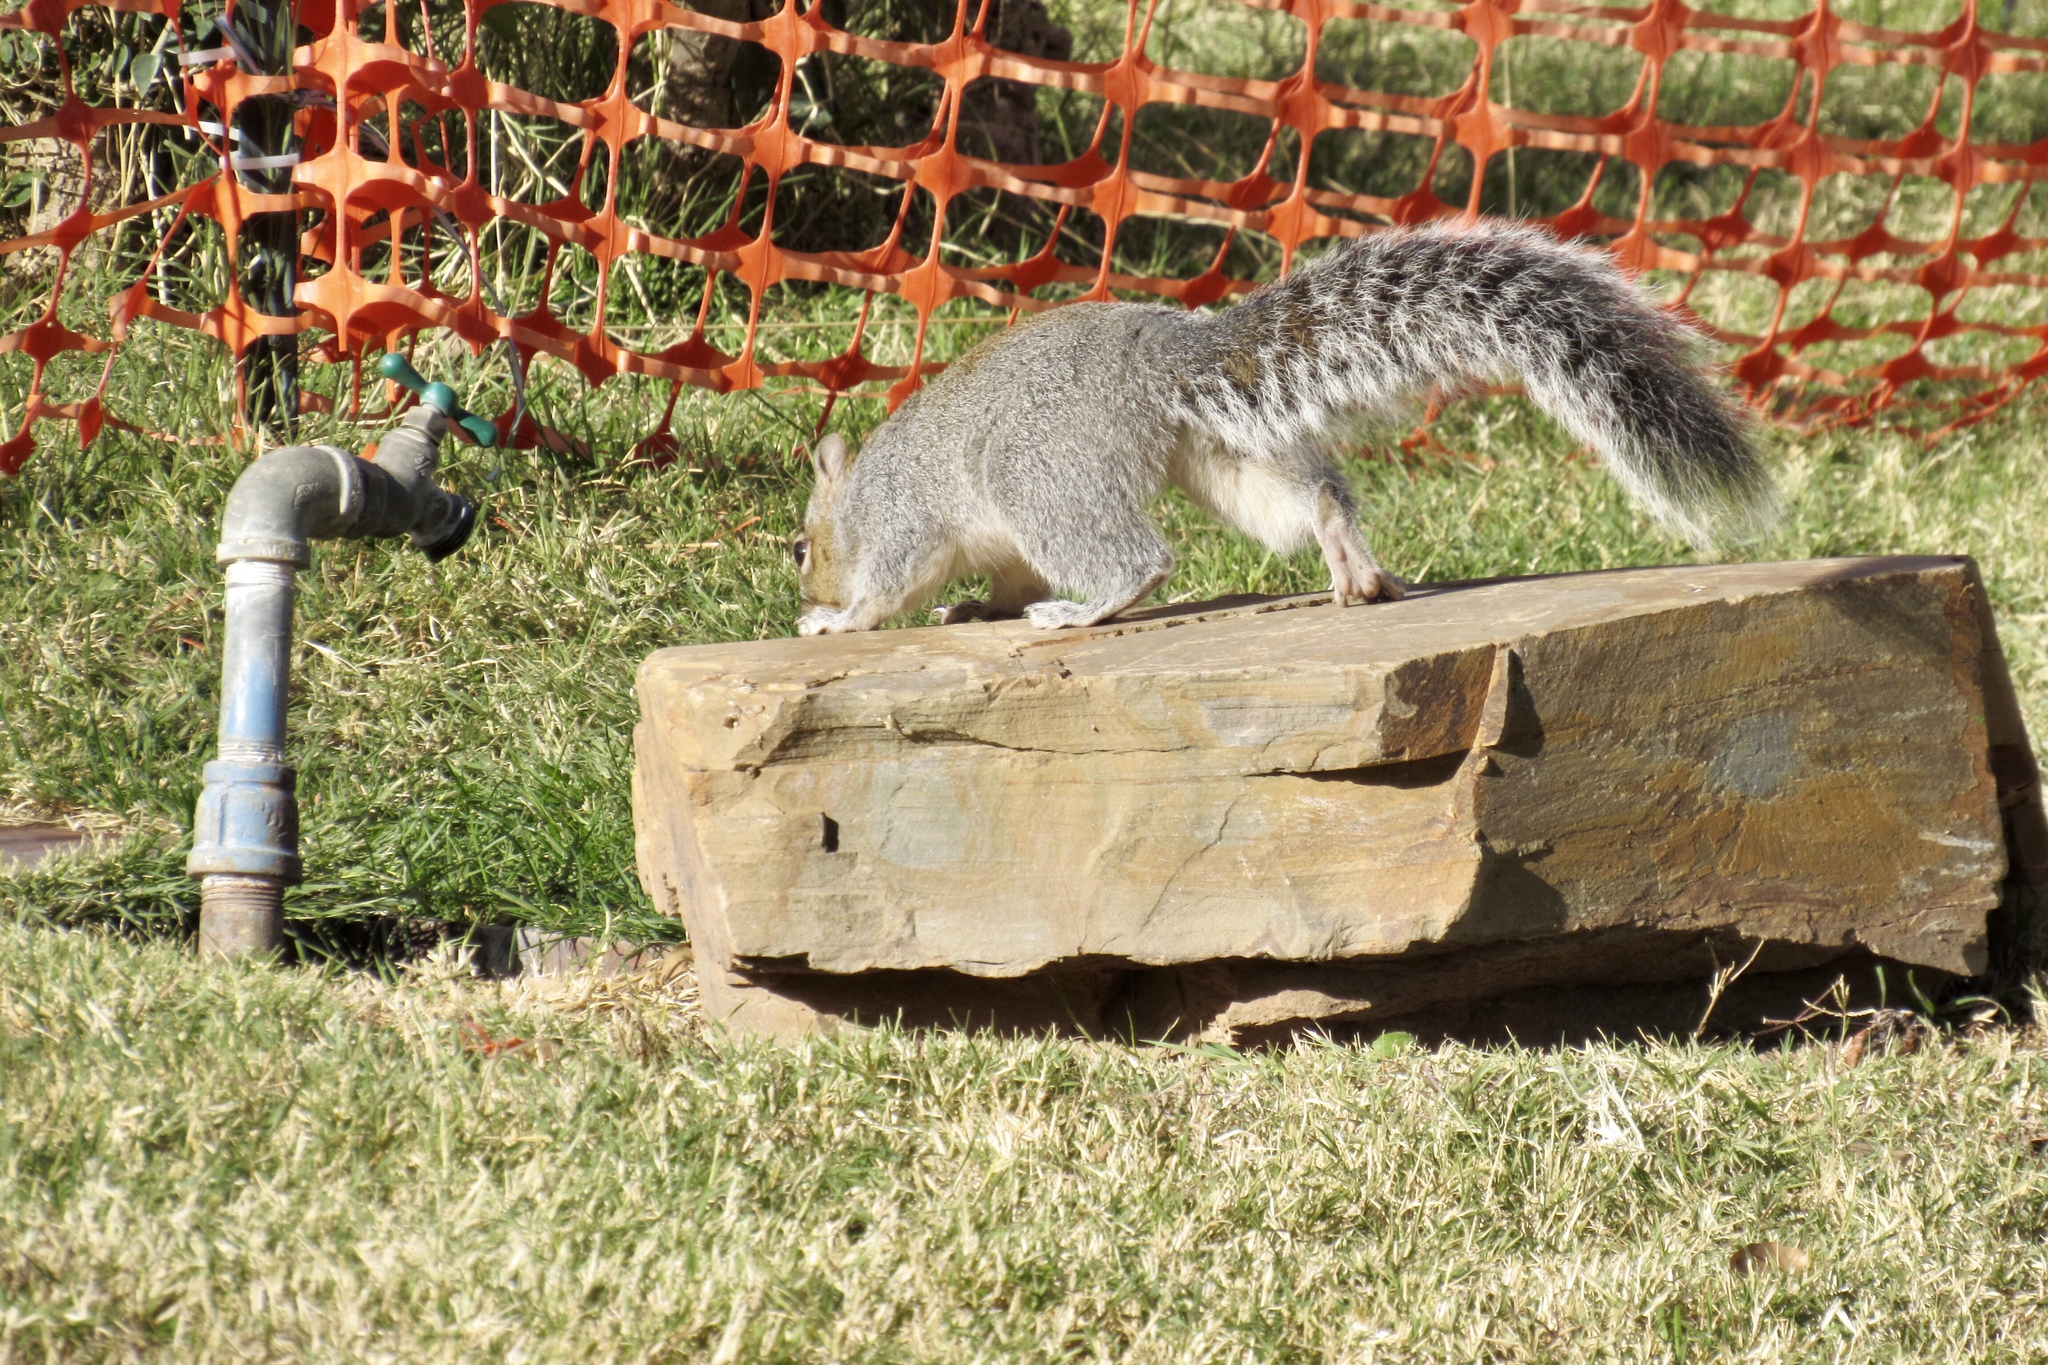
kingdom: Animalia
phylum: Chordata
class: Mammalia
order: Rodentia
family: Sciuridae
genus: Sciurus
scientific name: Sciurus arizonensis
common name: Arizona gray squirrel
